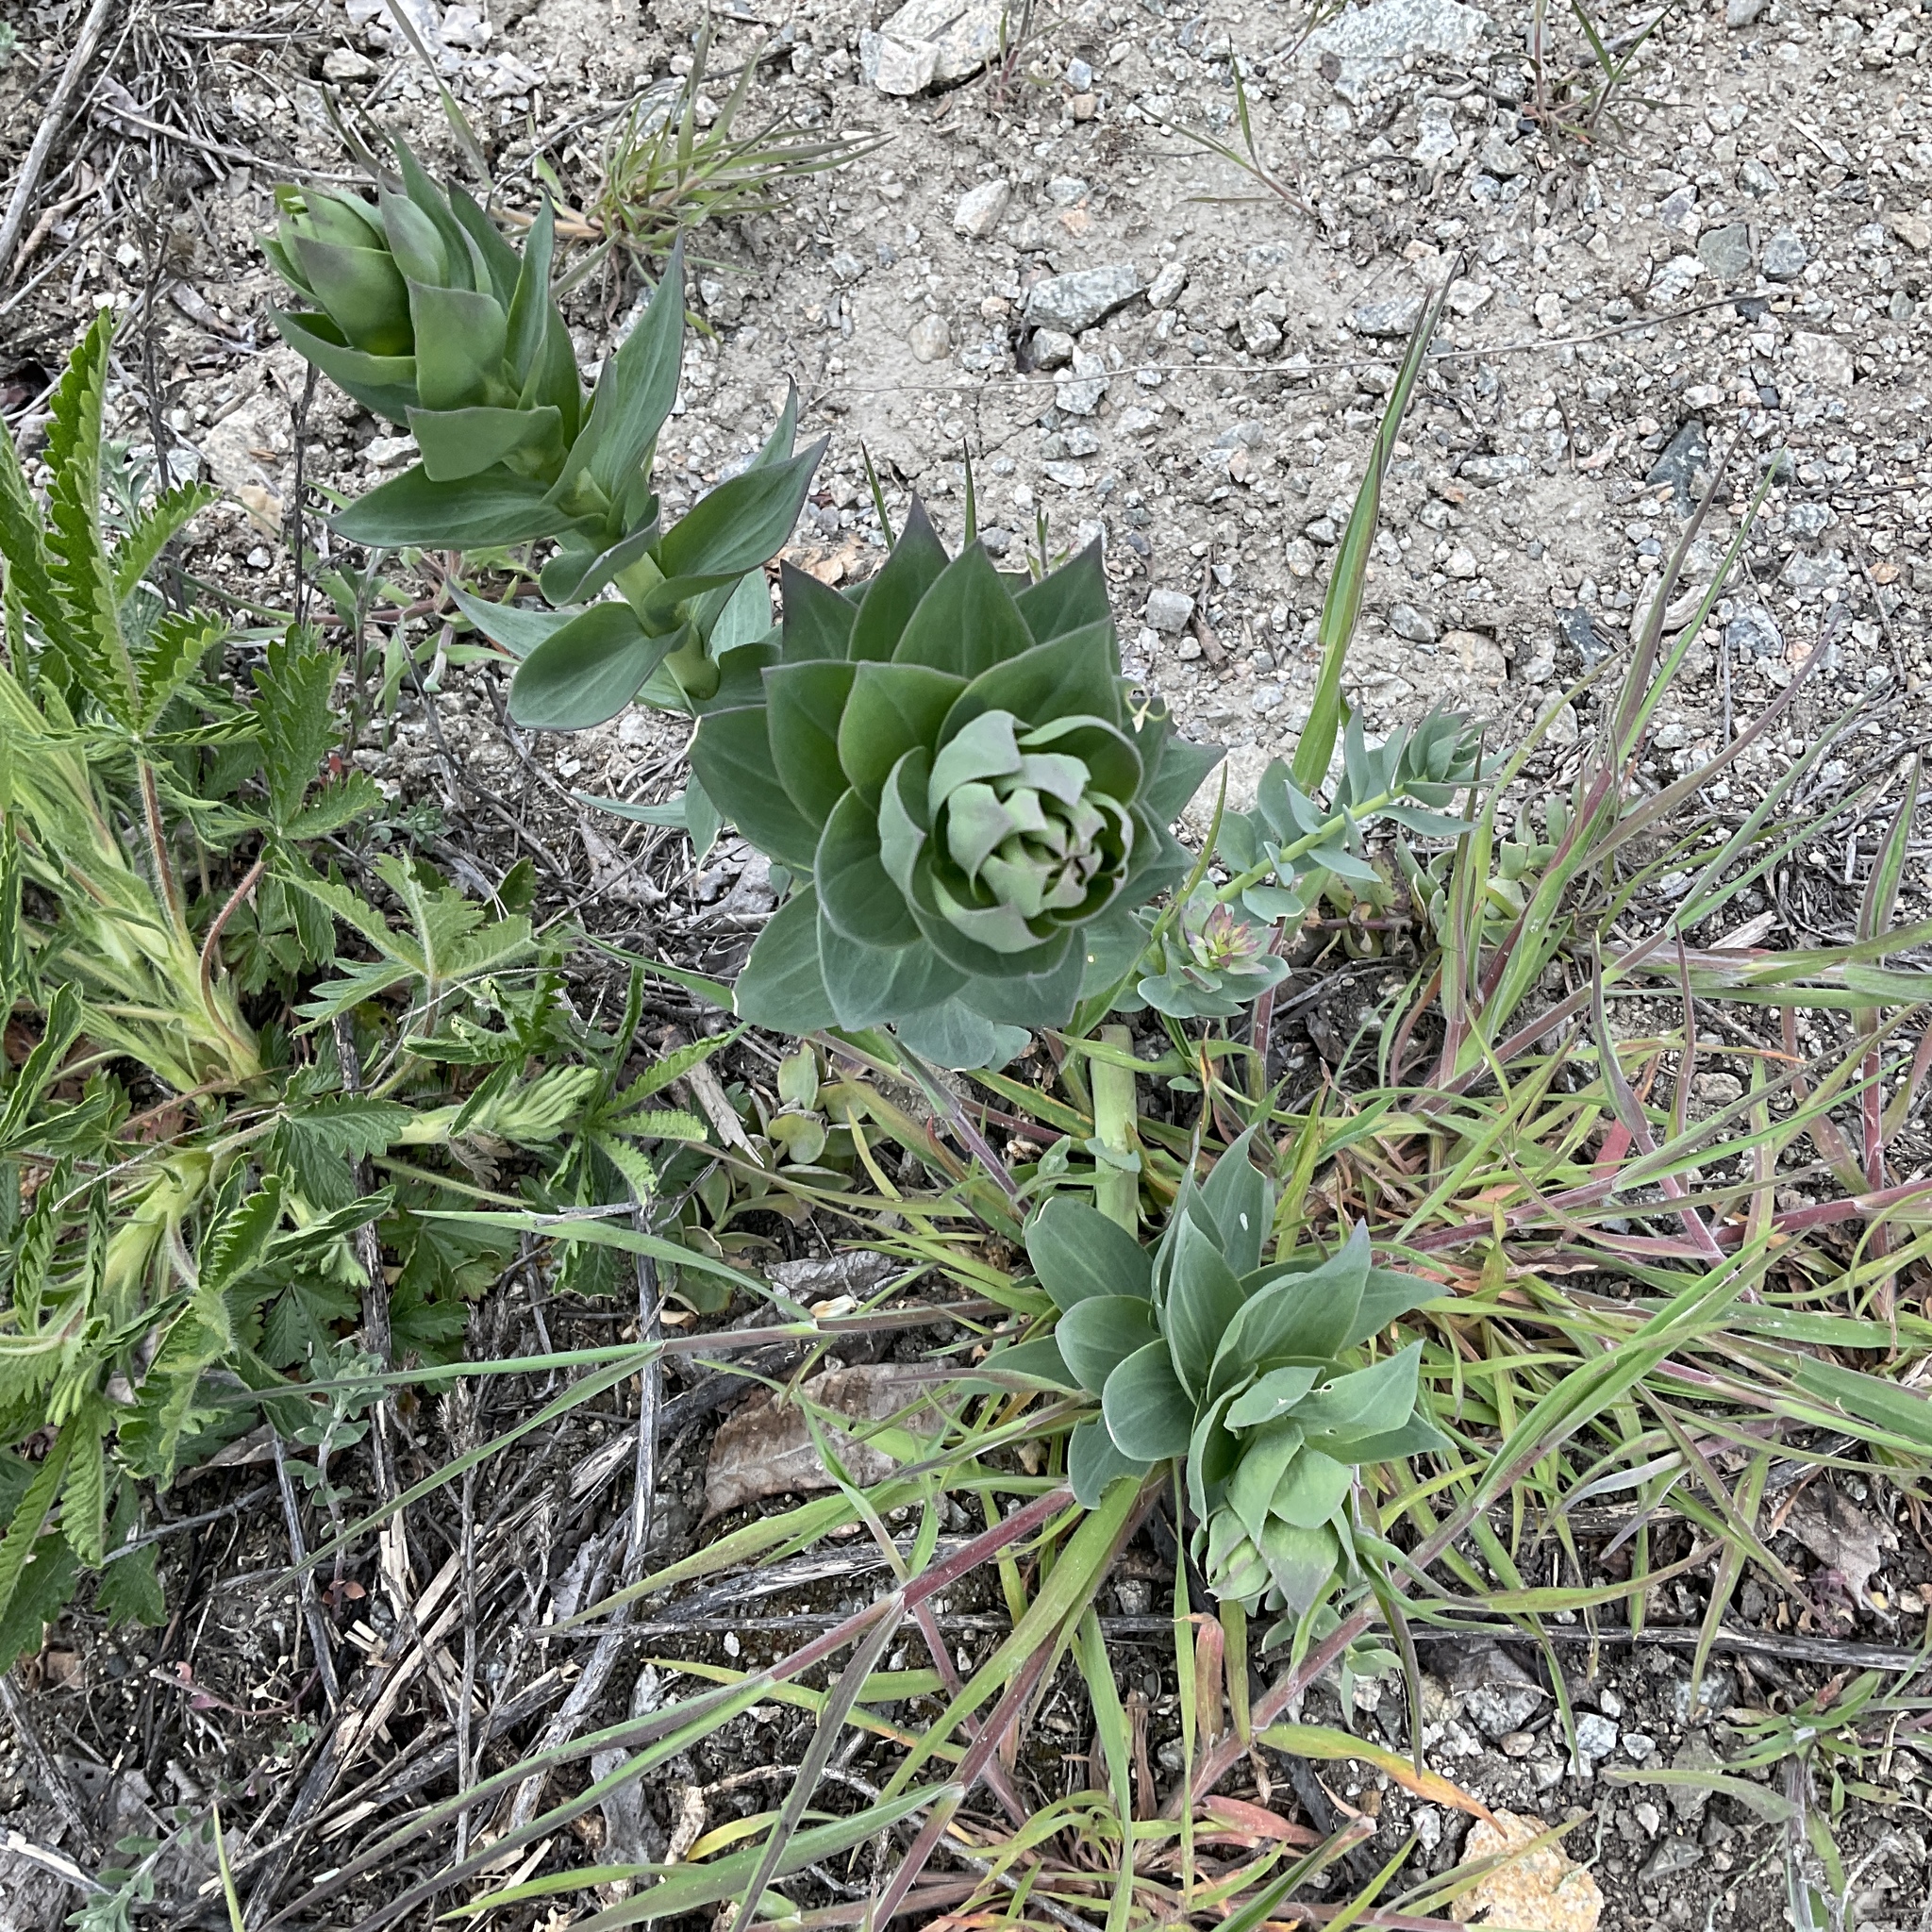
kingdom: Plantae
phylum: Tracheophyta
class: Magnoliopsida
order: Lamiales
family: Plantaginaceae
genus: Linaria
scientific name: Linaria dalmatica
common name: Dalmatian toadflax
